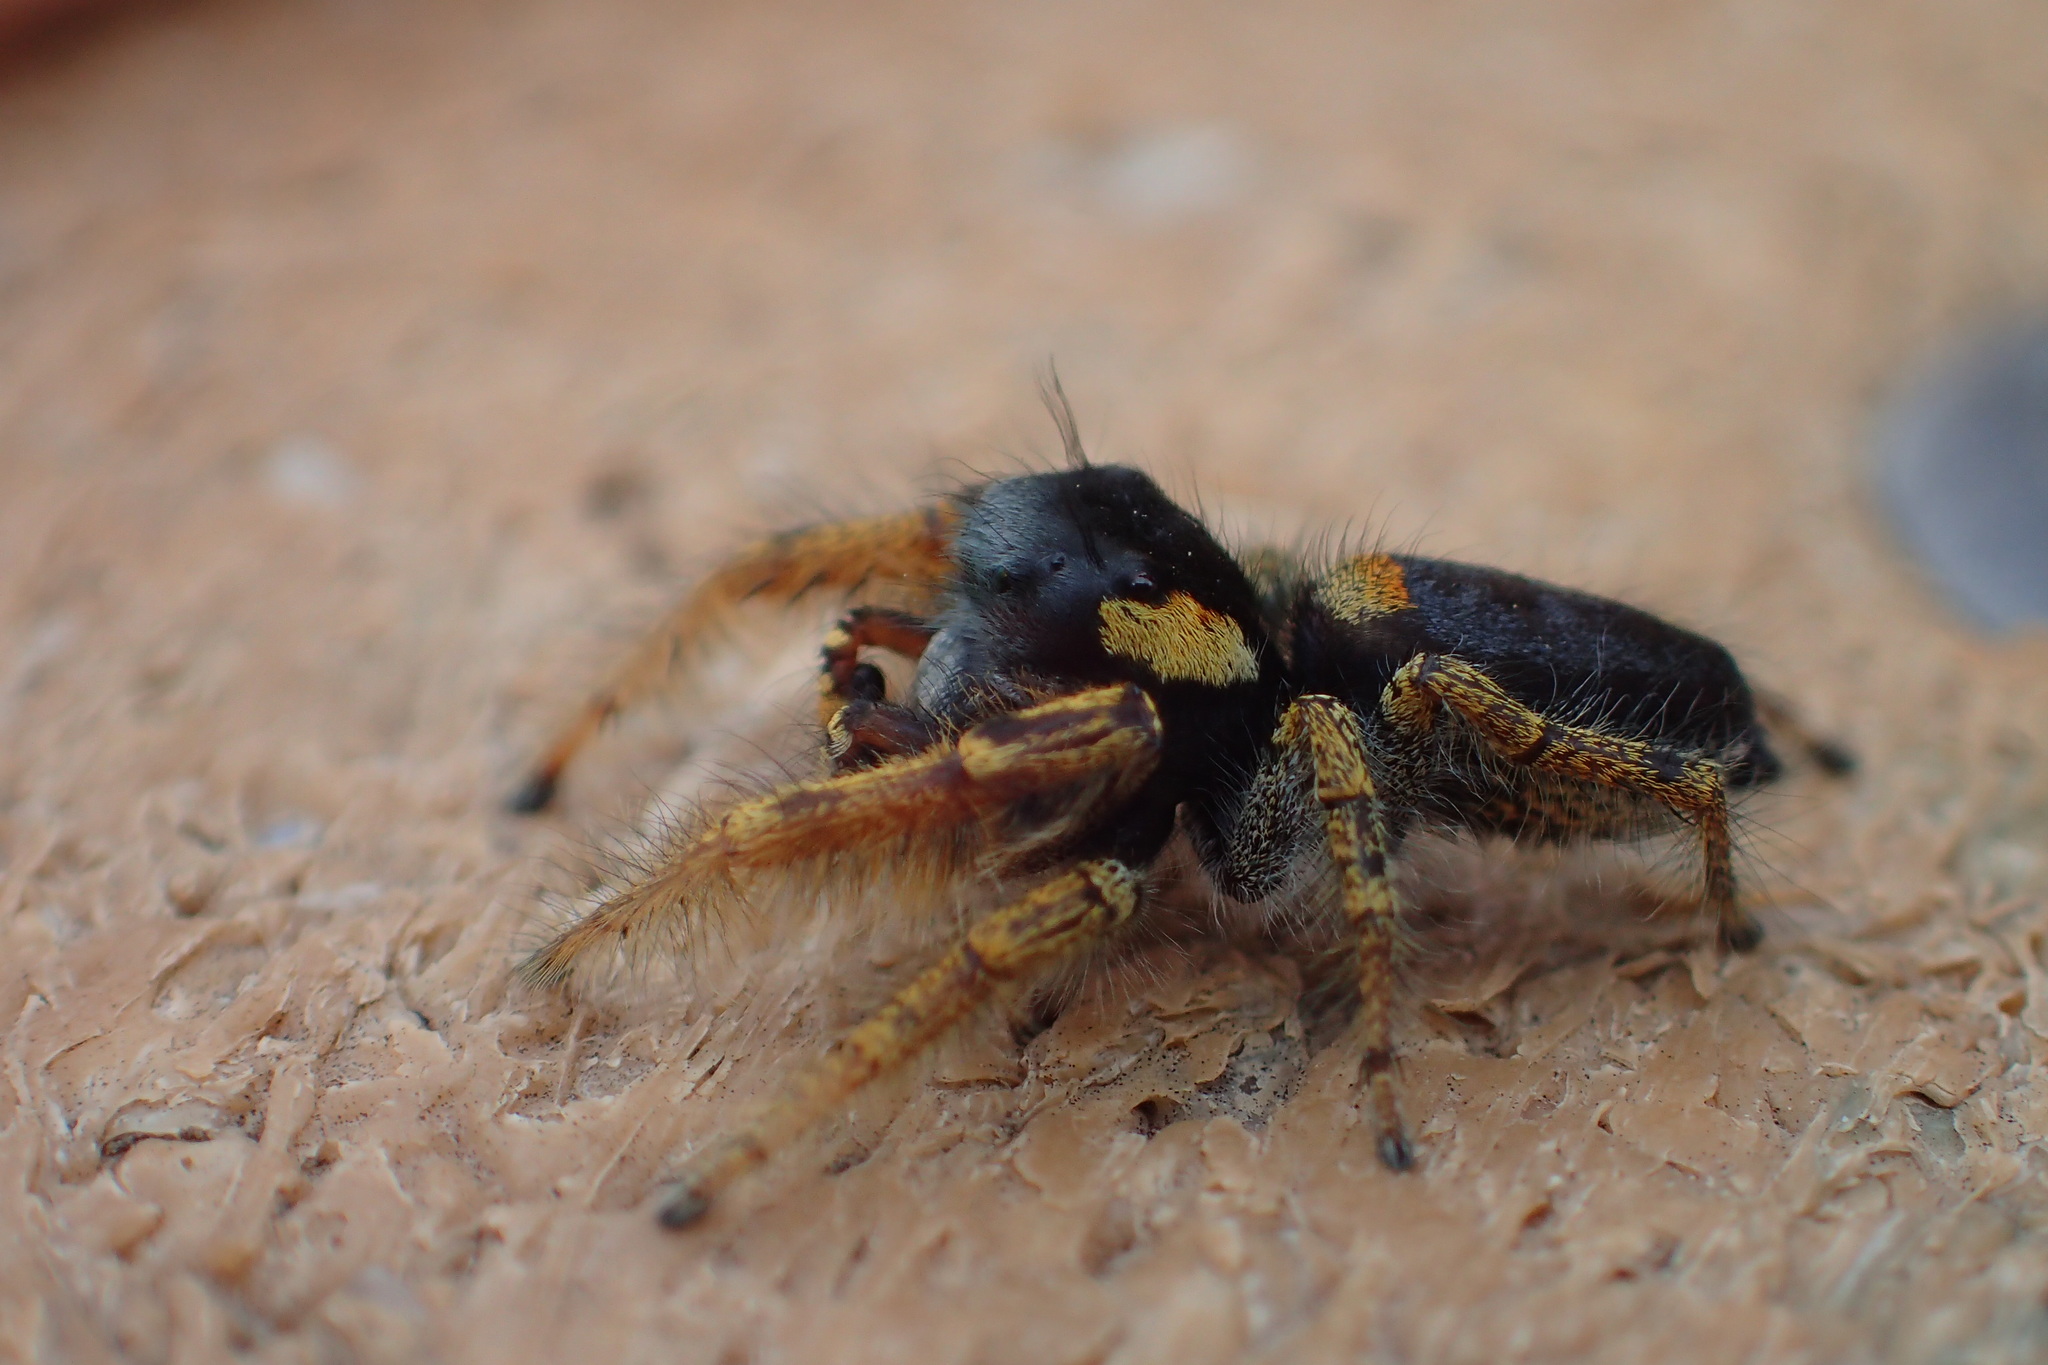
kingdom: Animalia
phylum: Arthropoda
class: Arachnida
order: Araneae
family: Salticidae
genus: Phidippus
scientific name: Phidippus arizonensis
